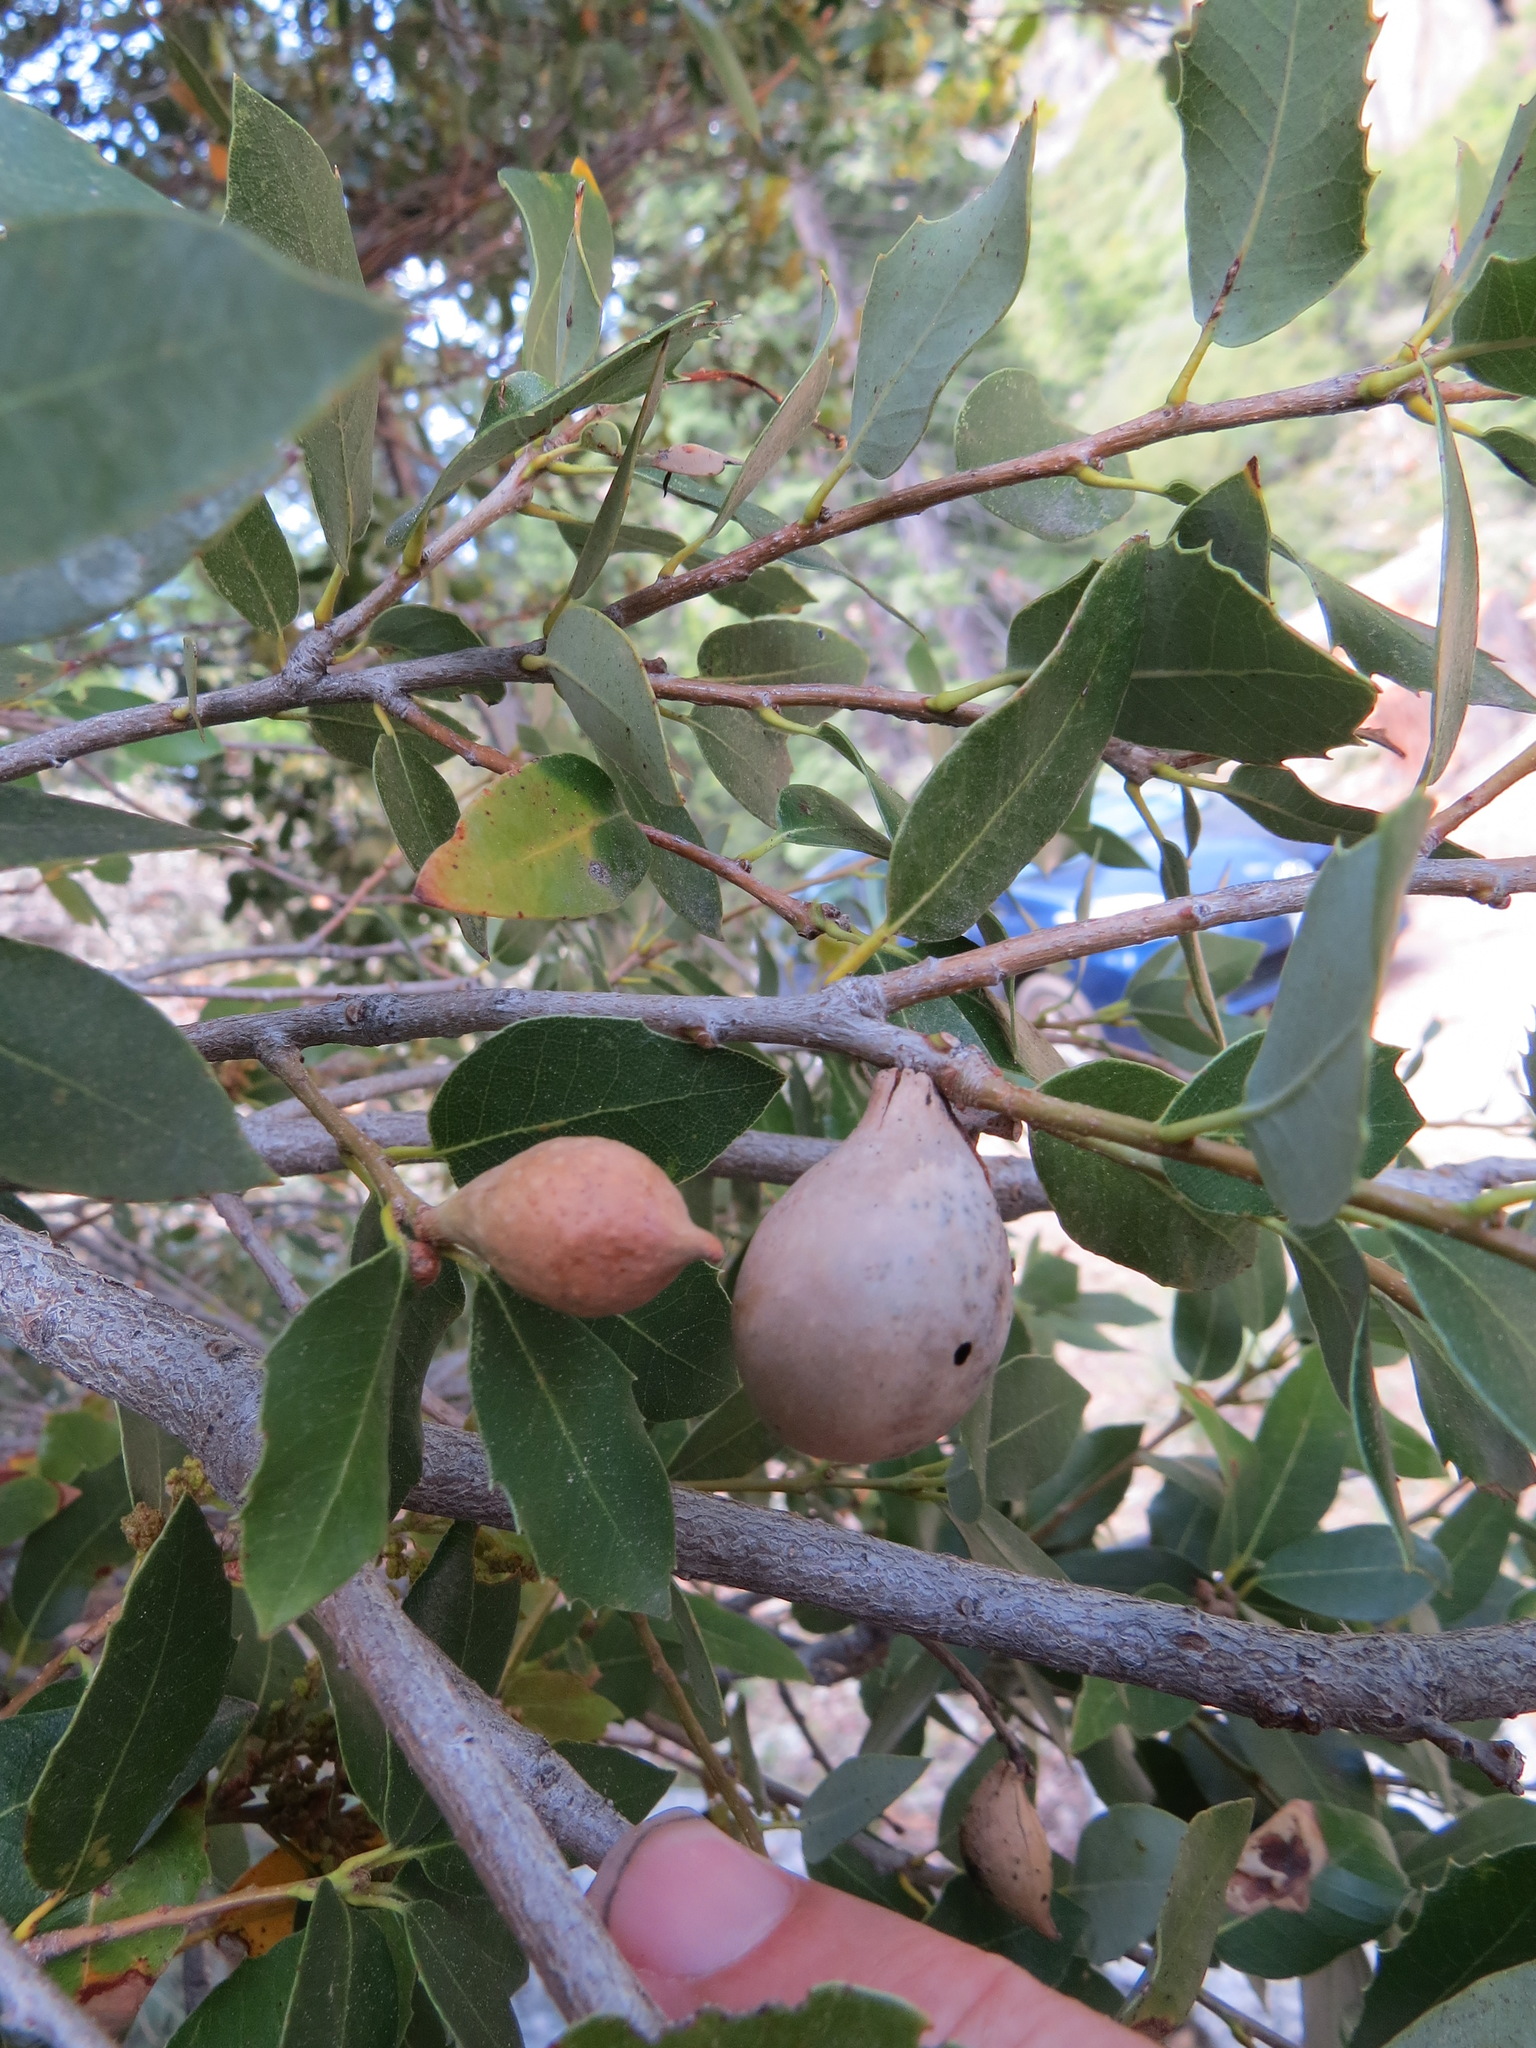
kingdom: Animalia
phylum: Arthropoda
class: Insecta
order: Hymenoptera
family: Cynipidae
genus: Heteroecus
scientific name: Heteroecus pacificus
